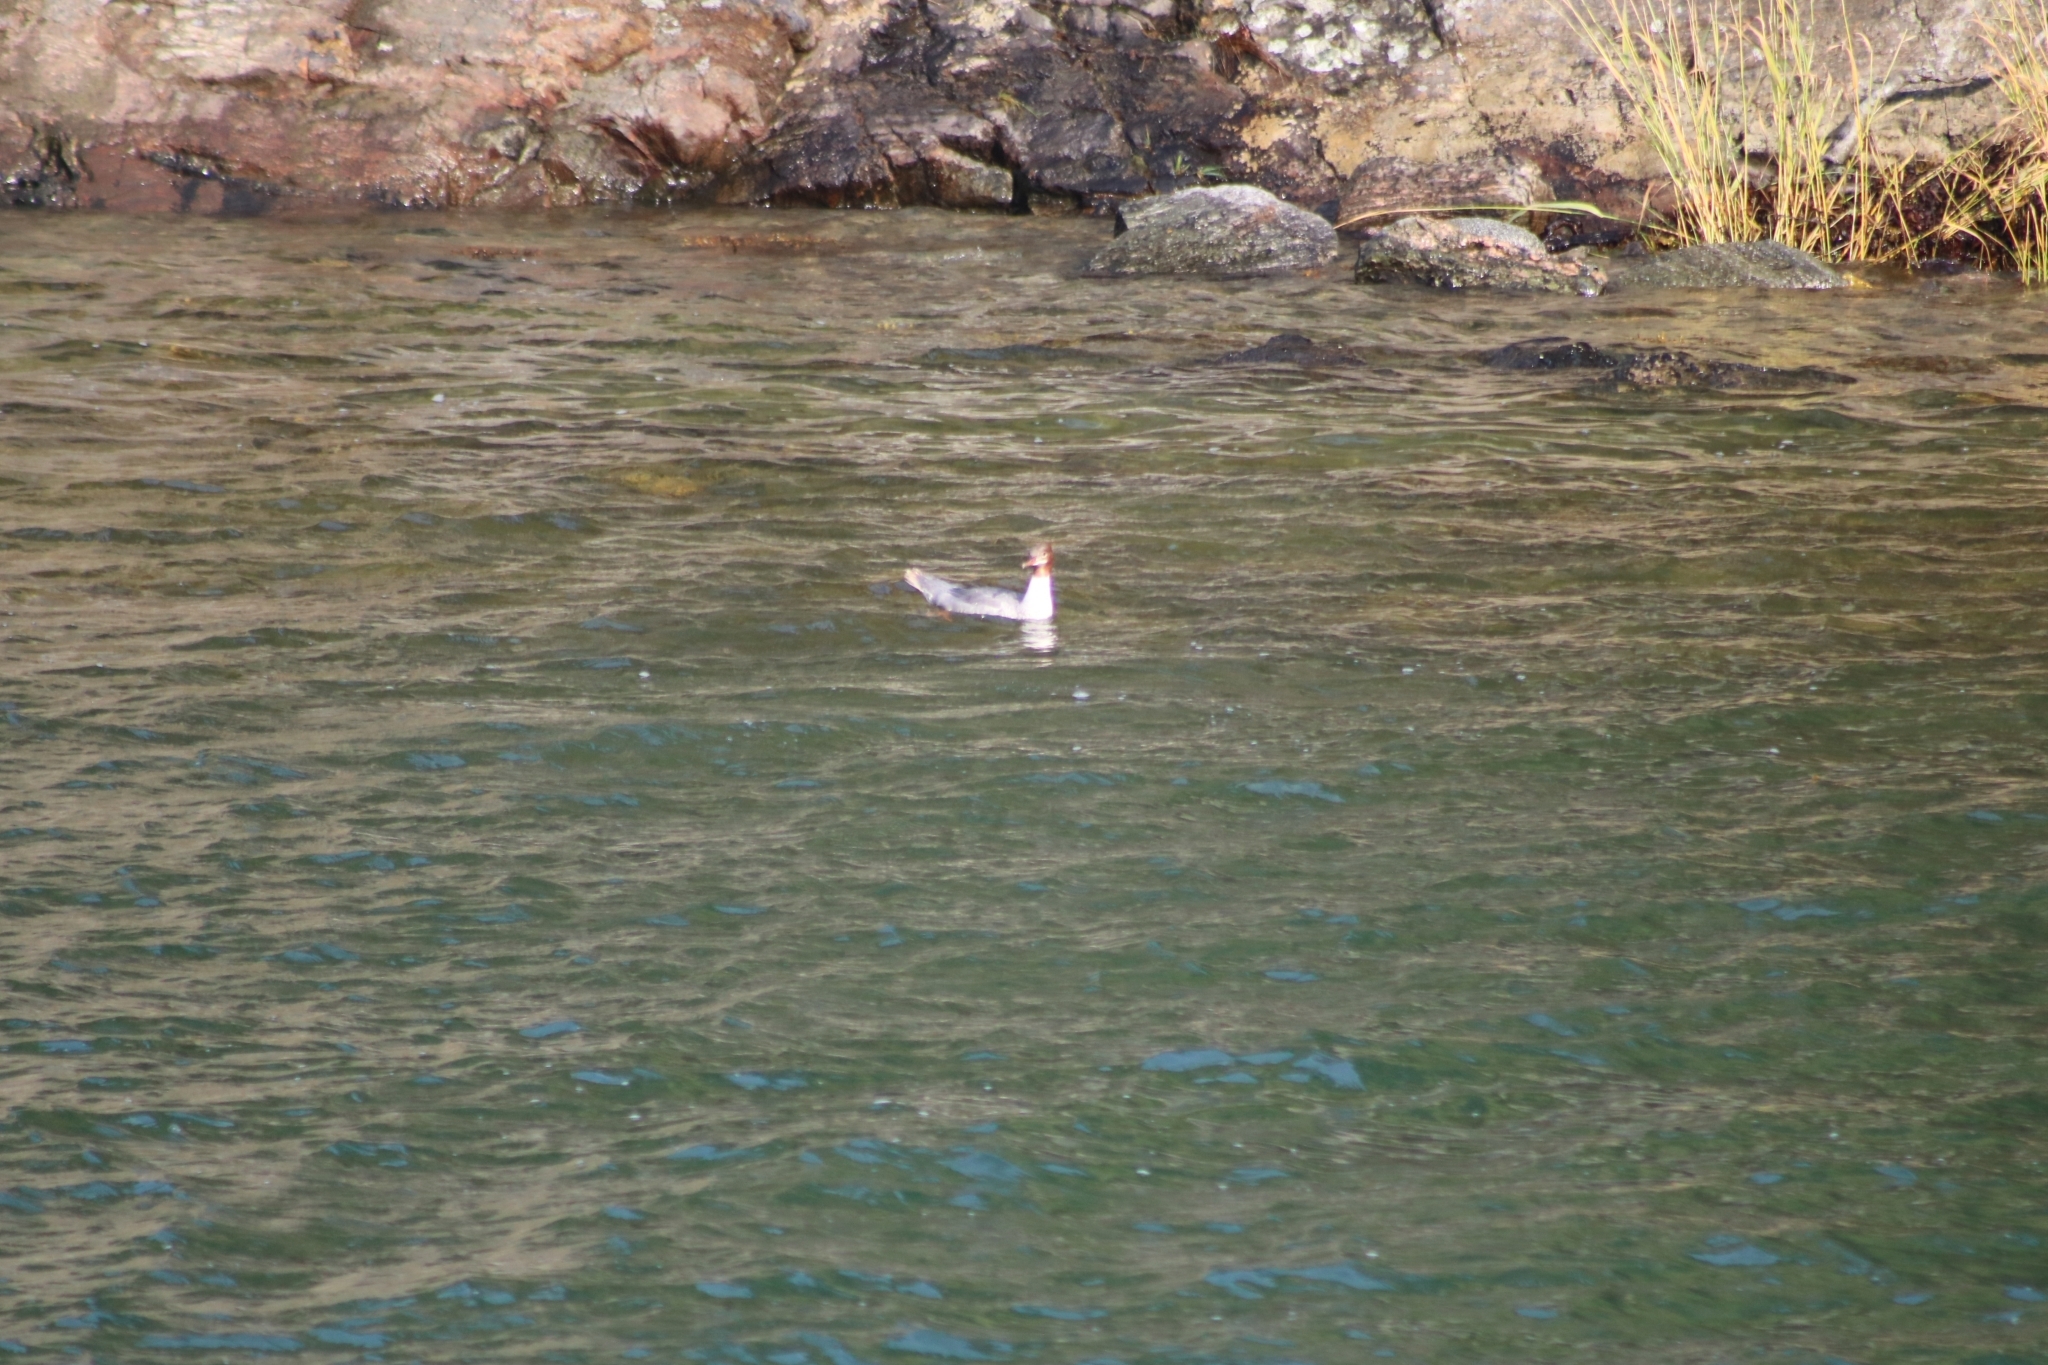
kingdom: Animalia
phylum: Chordata
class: Aves
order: Anseriformes
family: Anatidae
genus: Mergus
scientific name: Mergus merganser
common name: Common merganser
